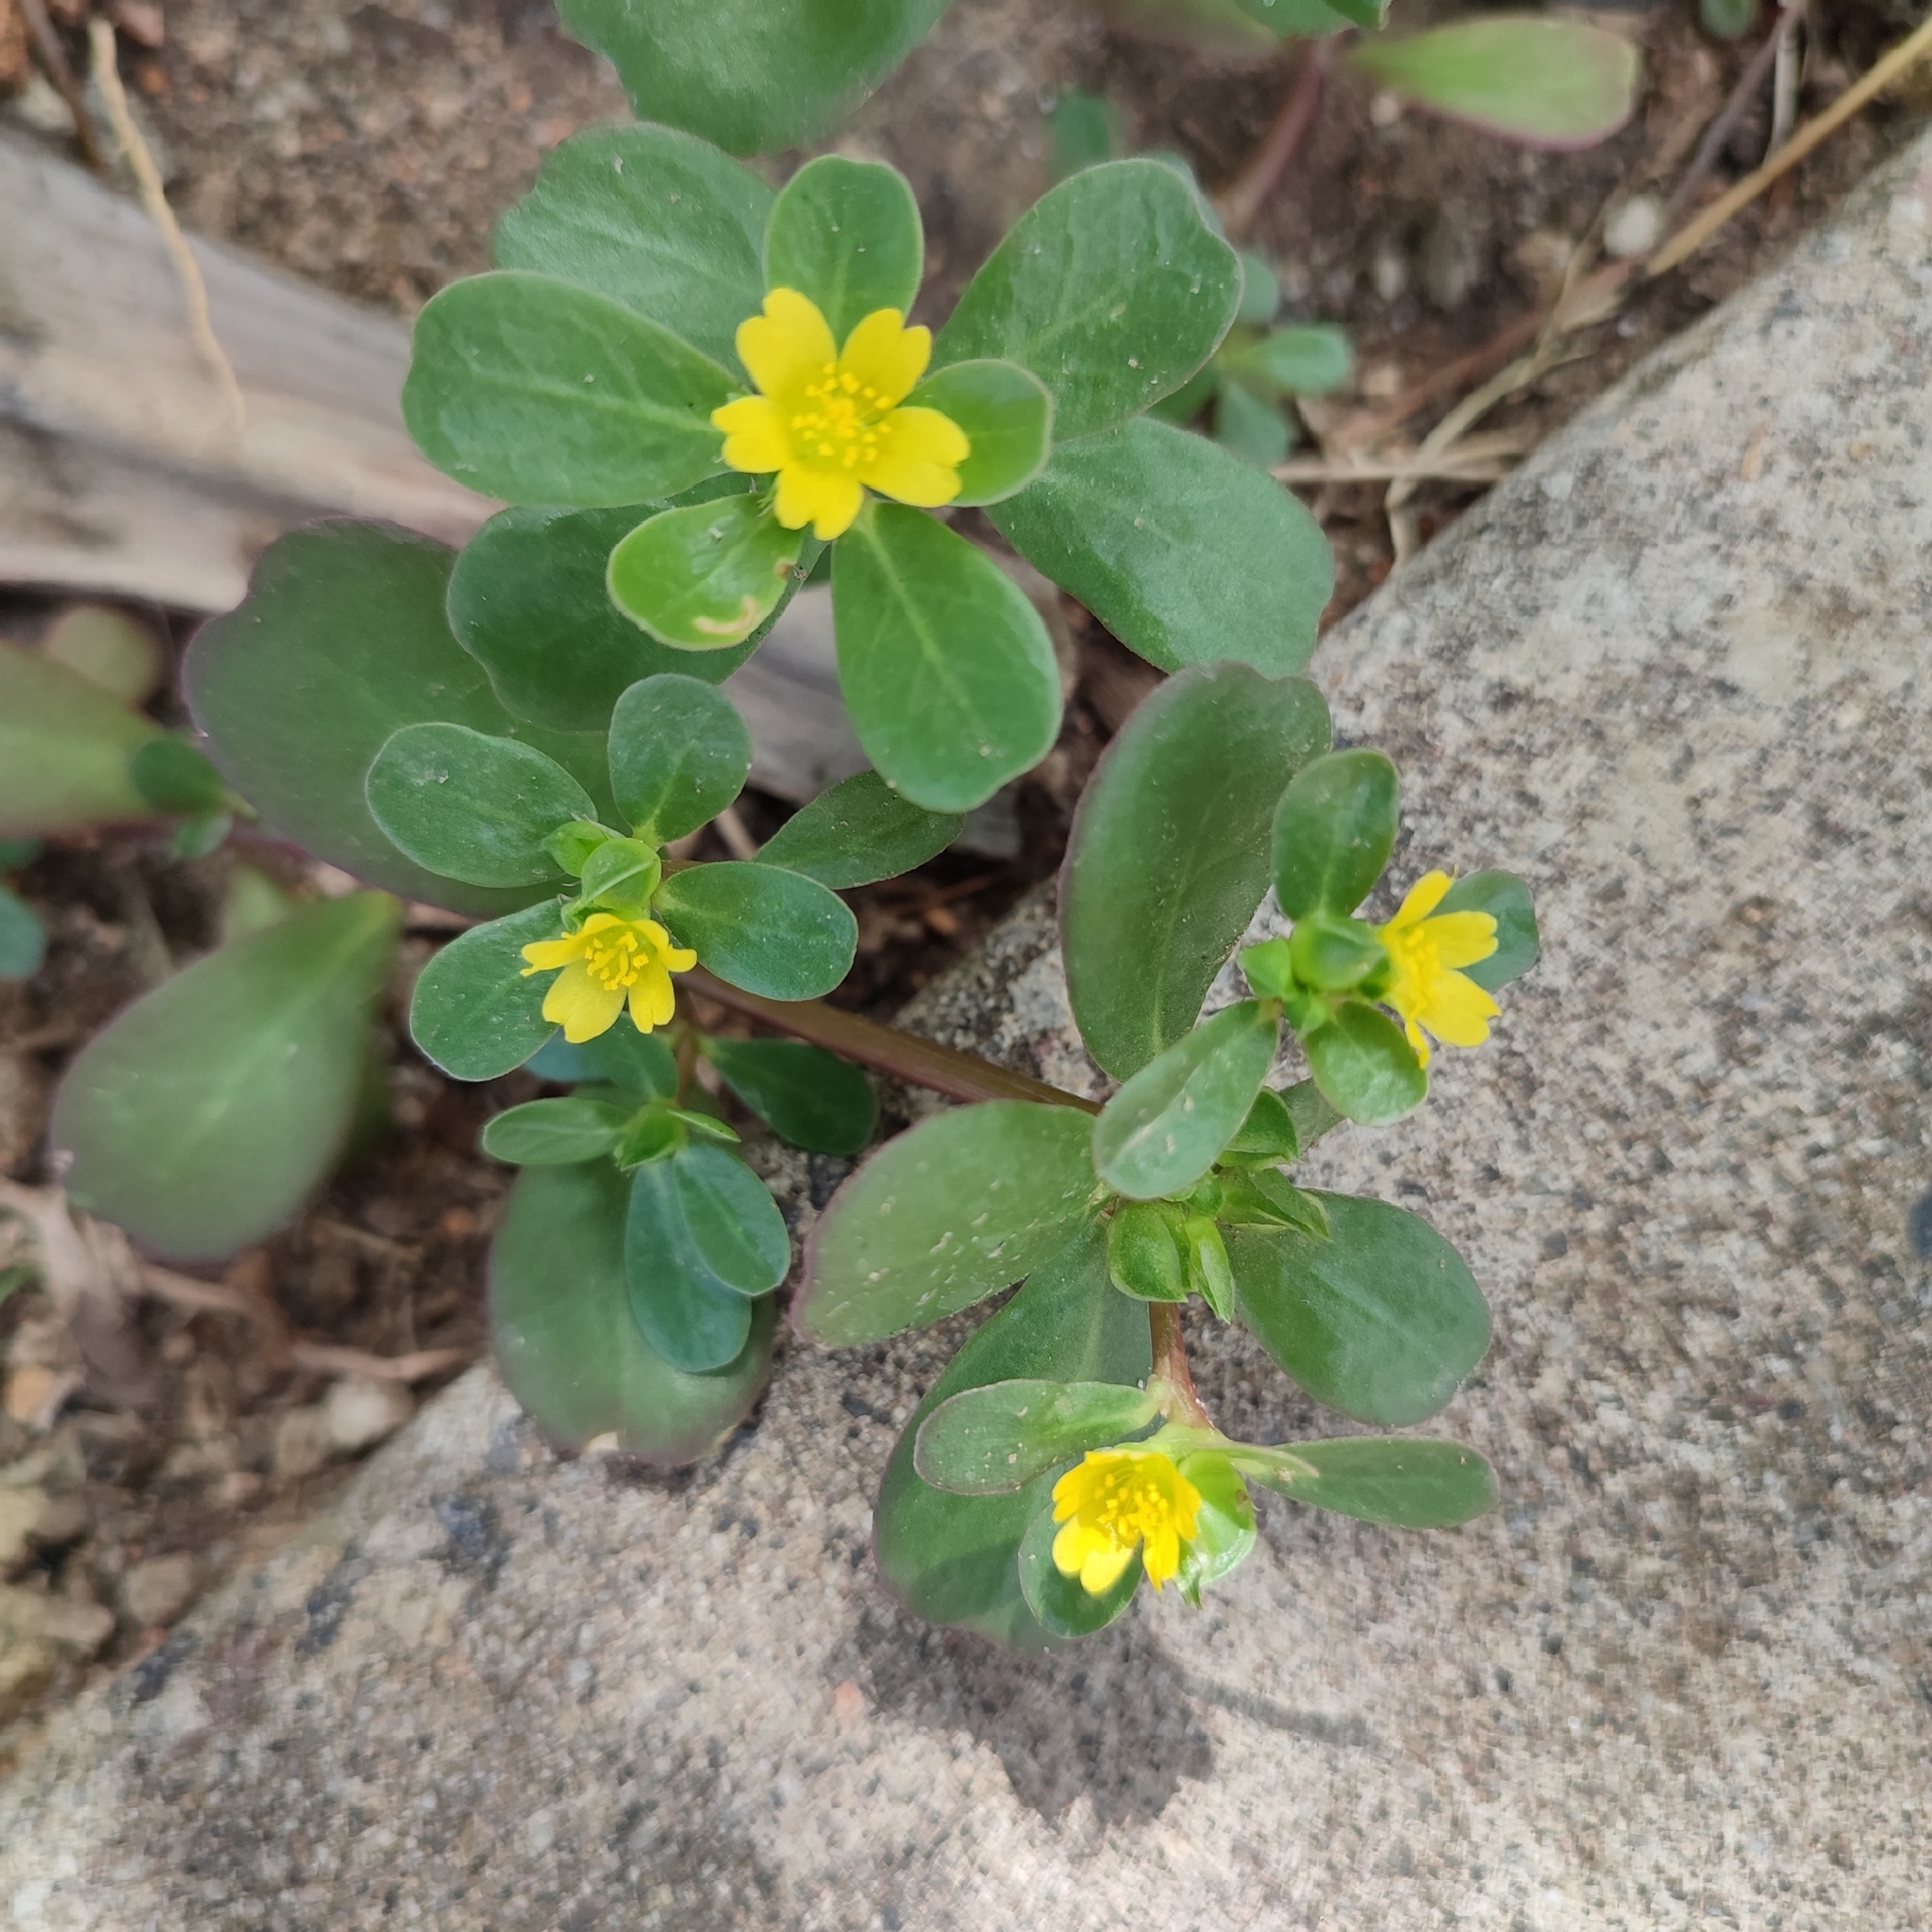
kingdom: Plantae
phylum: Tracheophyta
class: Magnoliopsida
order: Caryophyllales
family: Portulacaceae
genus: Portulaca
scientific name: Portulaca oleracea
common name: Common purslane
